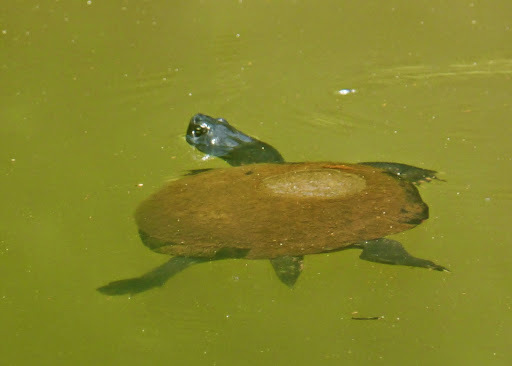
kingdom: Animalia
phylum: Chordata
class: Testudines
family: Emydidae
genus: Pseudemys
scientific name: Pseudemys rubriventris
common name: American red-bellied turtle
